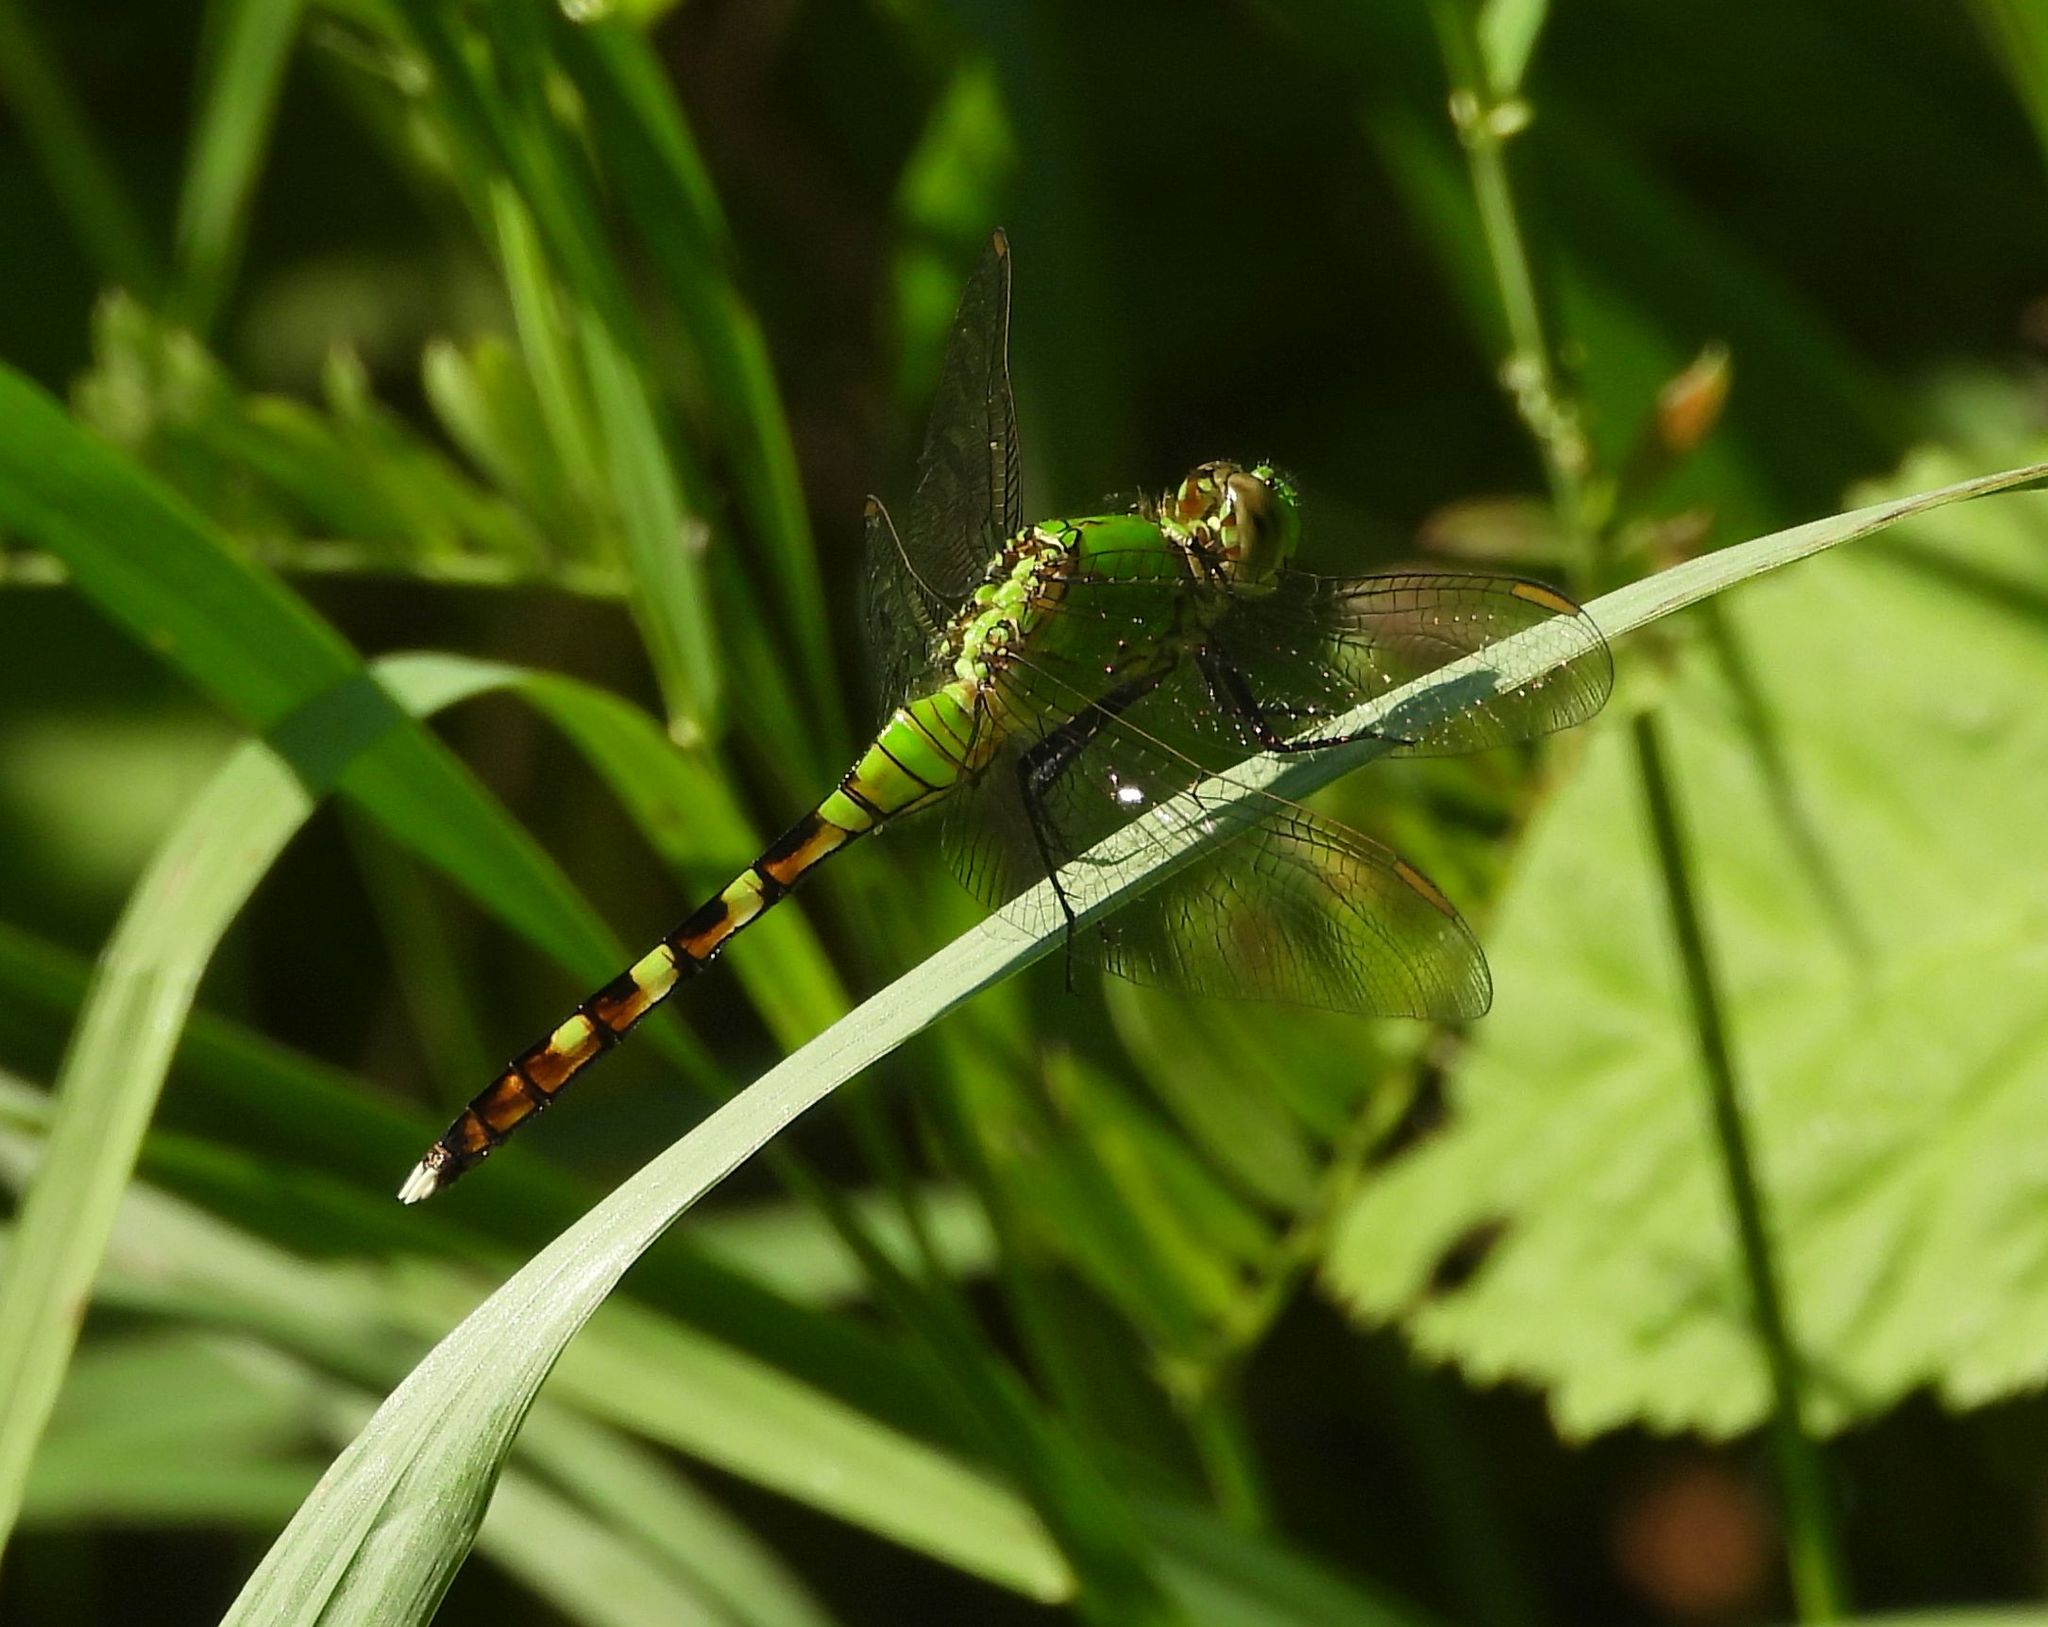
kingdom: Animalia
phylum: Arthropoda
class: Insecta
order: Odonata
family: Libellulidae
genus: Erythemis
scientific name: Erythemis simplicicollis
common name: Eastern pondhawk
